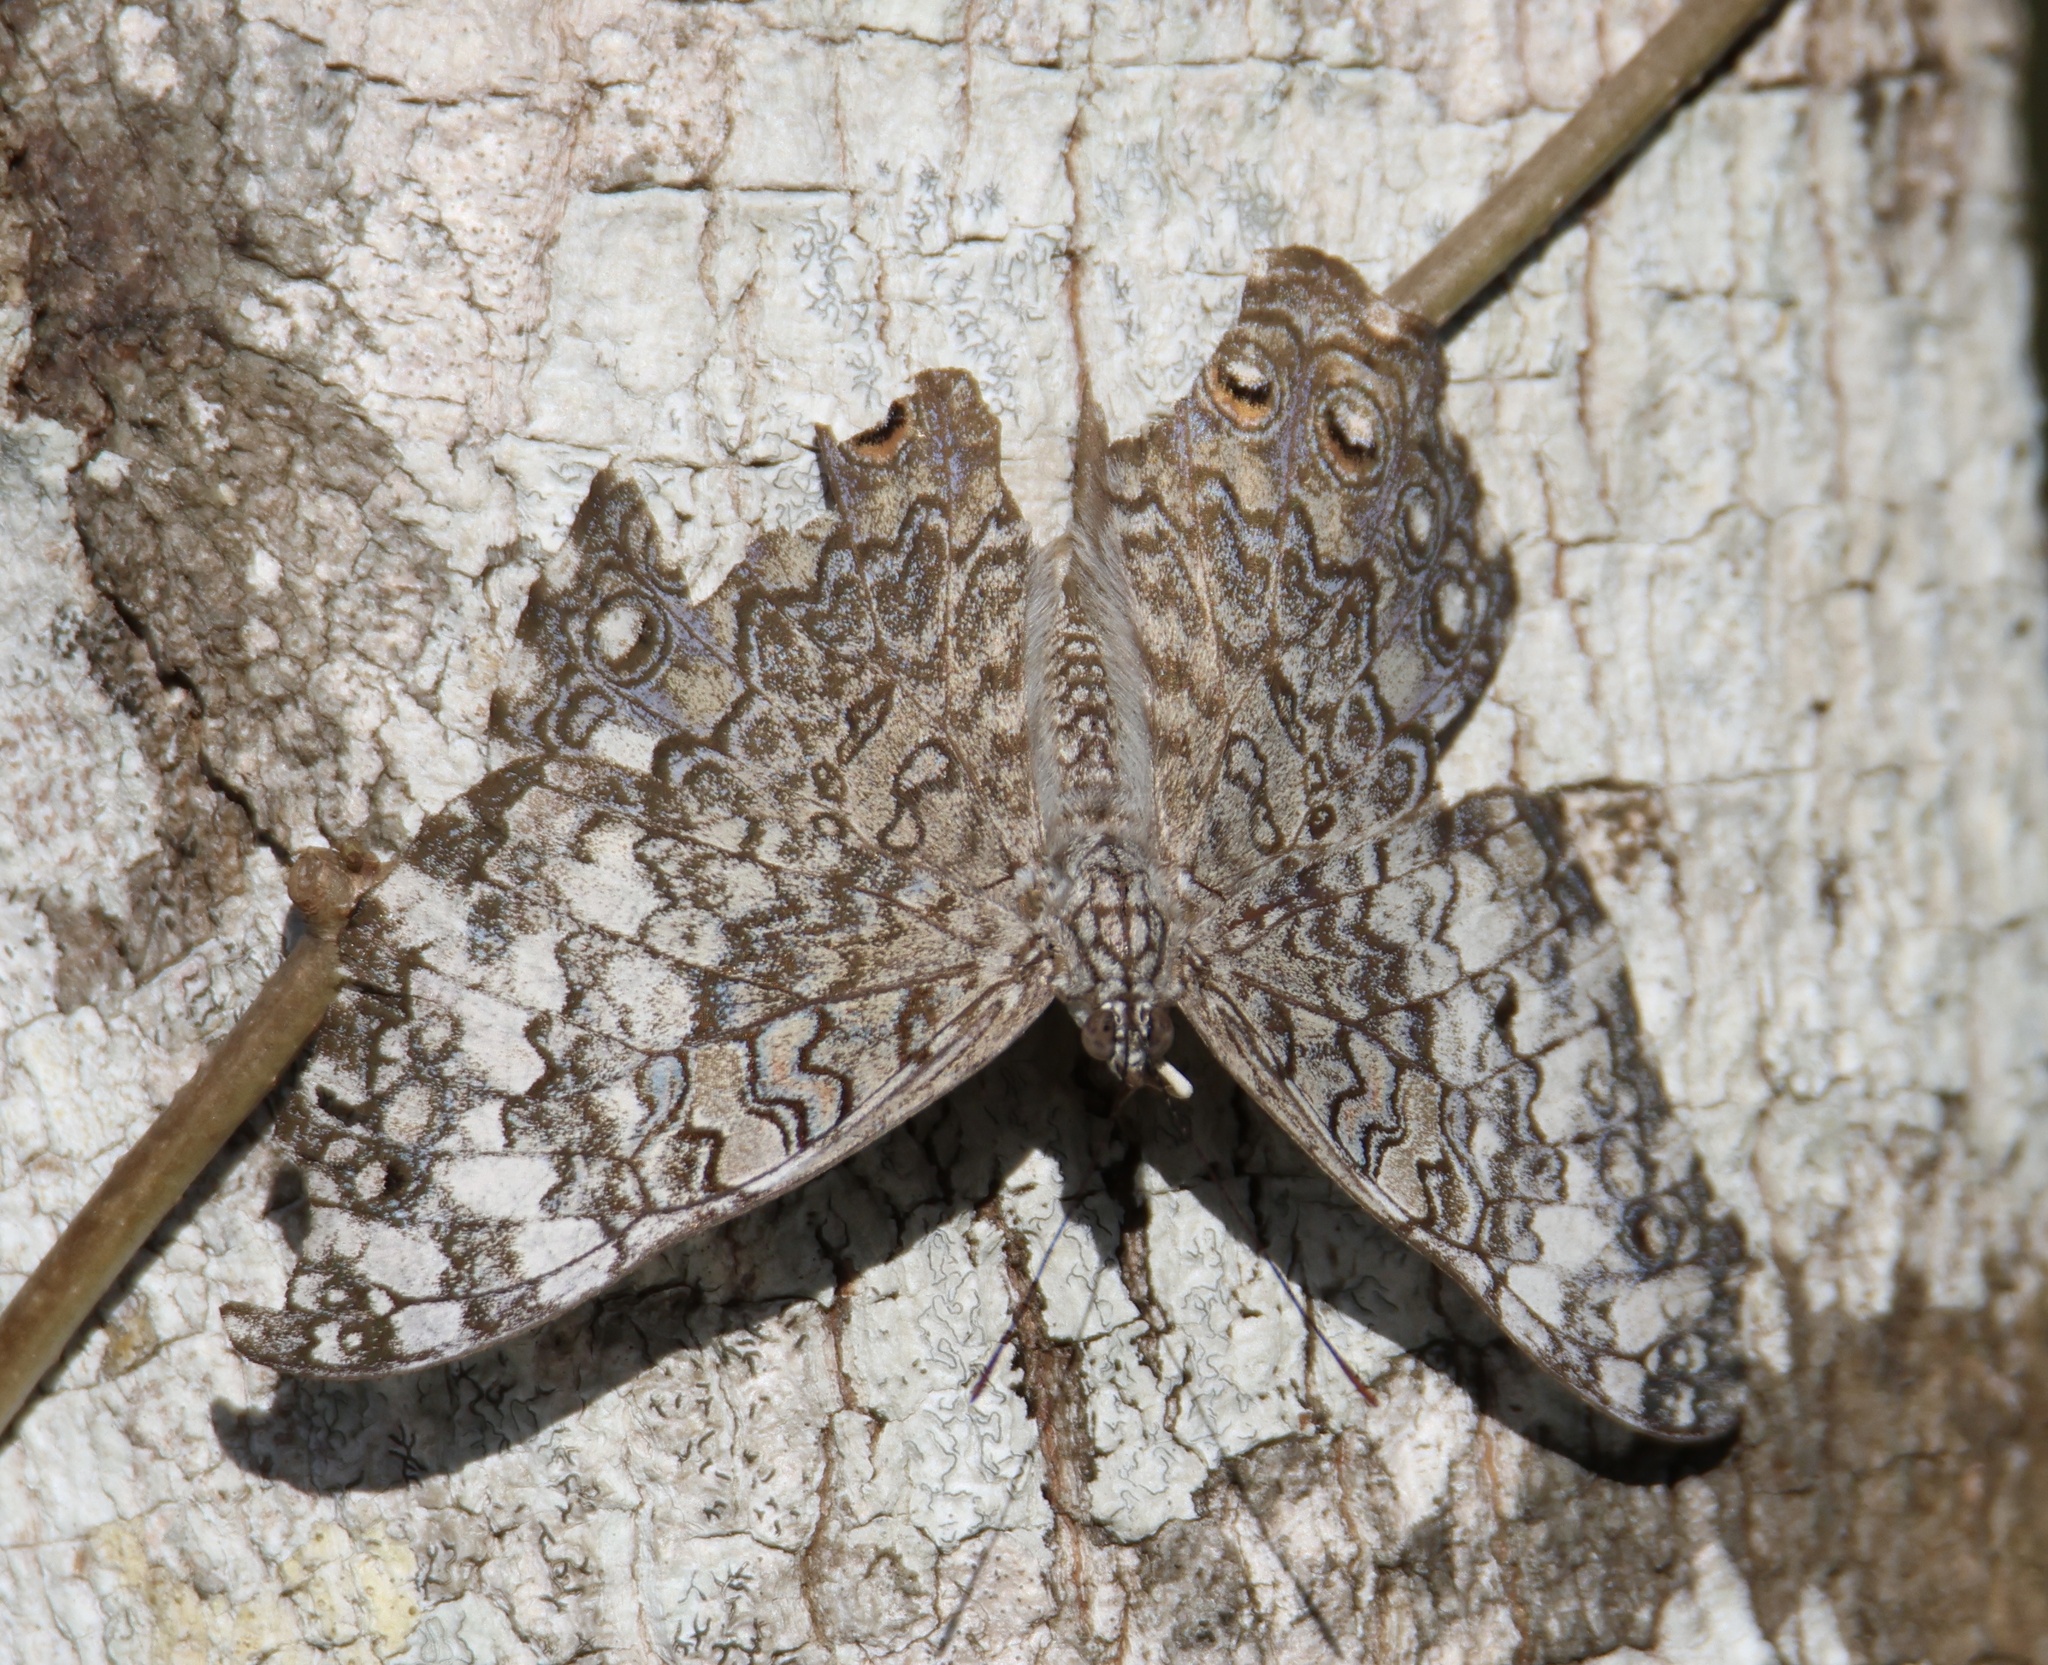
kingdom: Animalia
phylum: Arthropoda
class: Insecta
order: Lepidoptera
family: Nymphalidae
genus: Hamadryas
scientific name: Hamadryas februa
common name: Gray cracker
